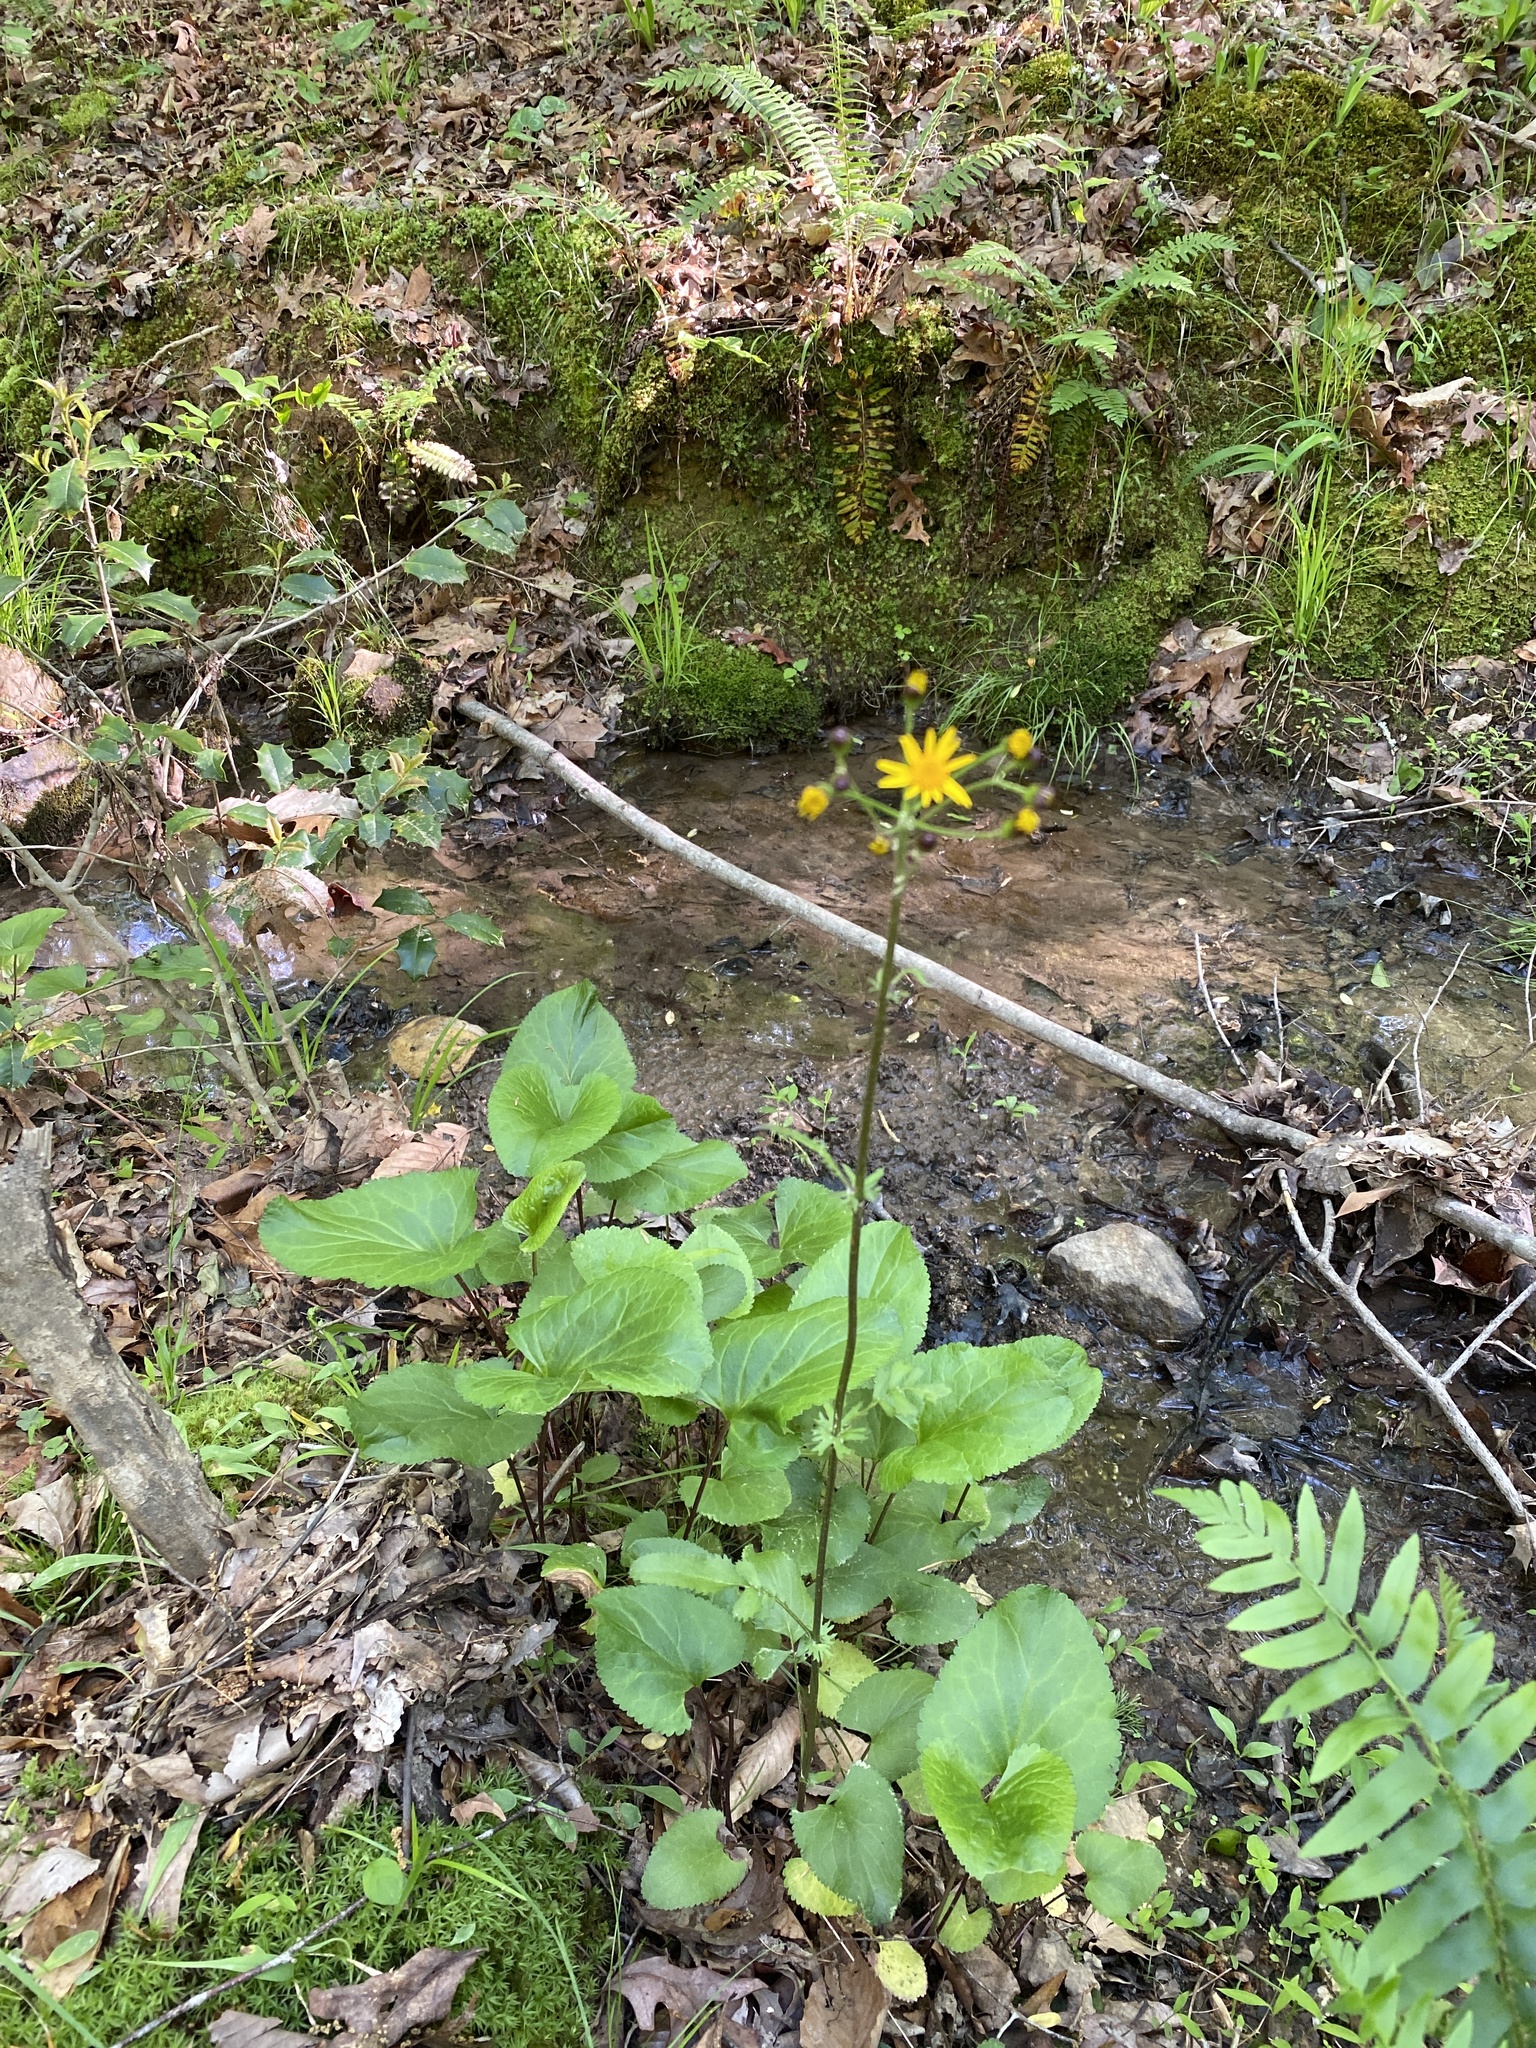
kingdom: Plantae
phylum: Tracheophyta
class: Magnoliopsida
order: Asterales
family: Asteraceae
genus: Packera
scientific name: Packera aurea
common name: Golden groundsel
